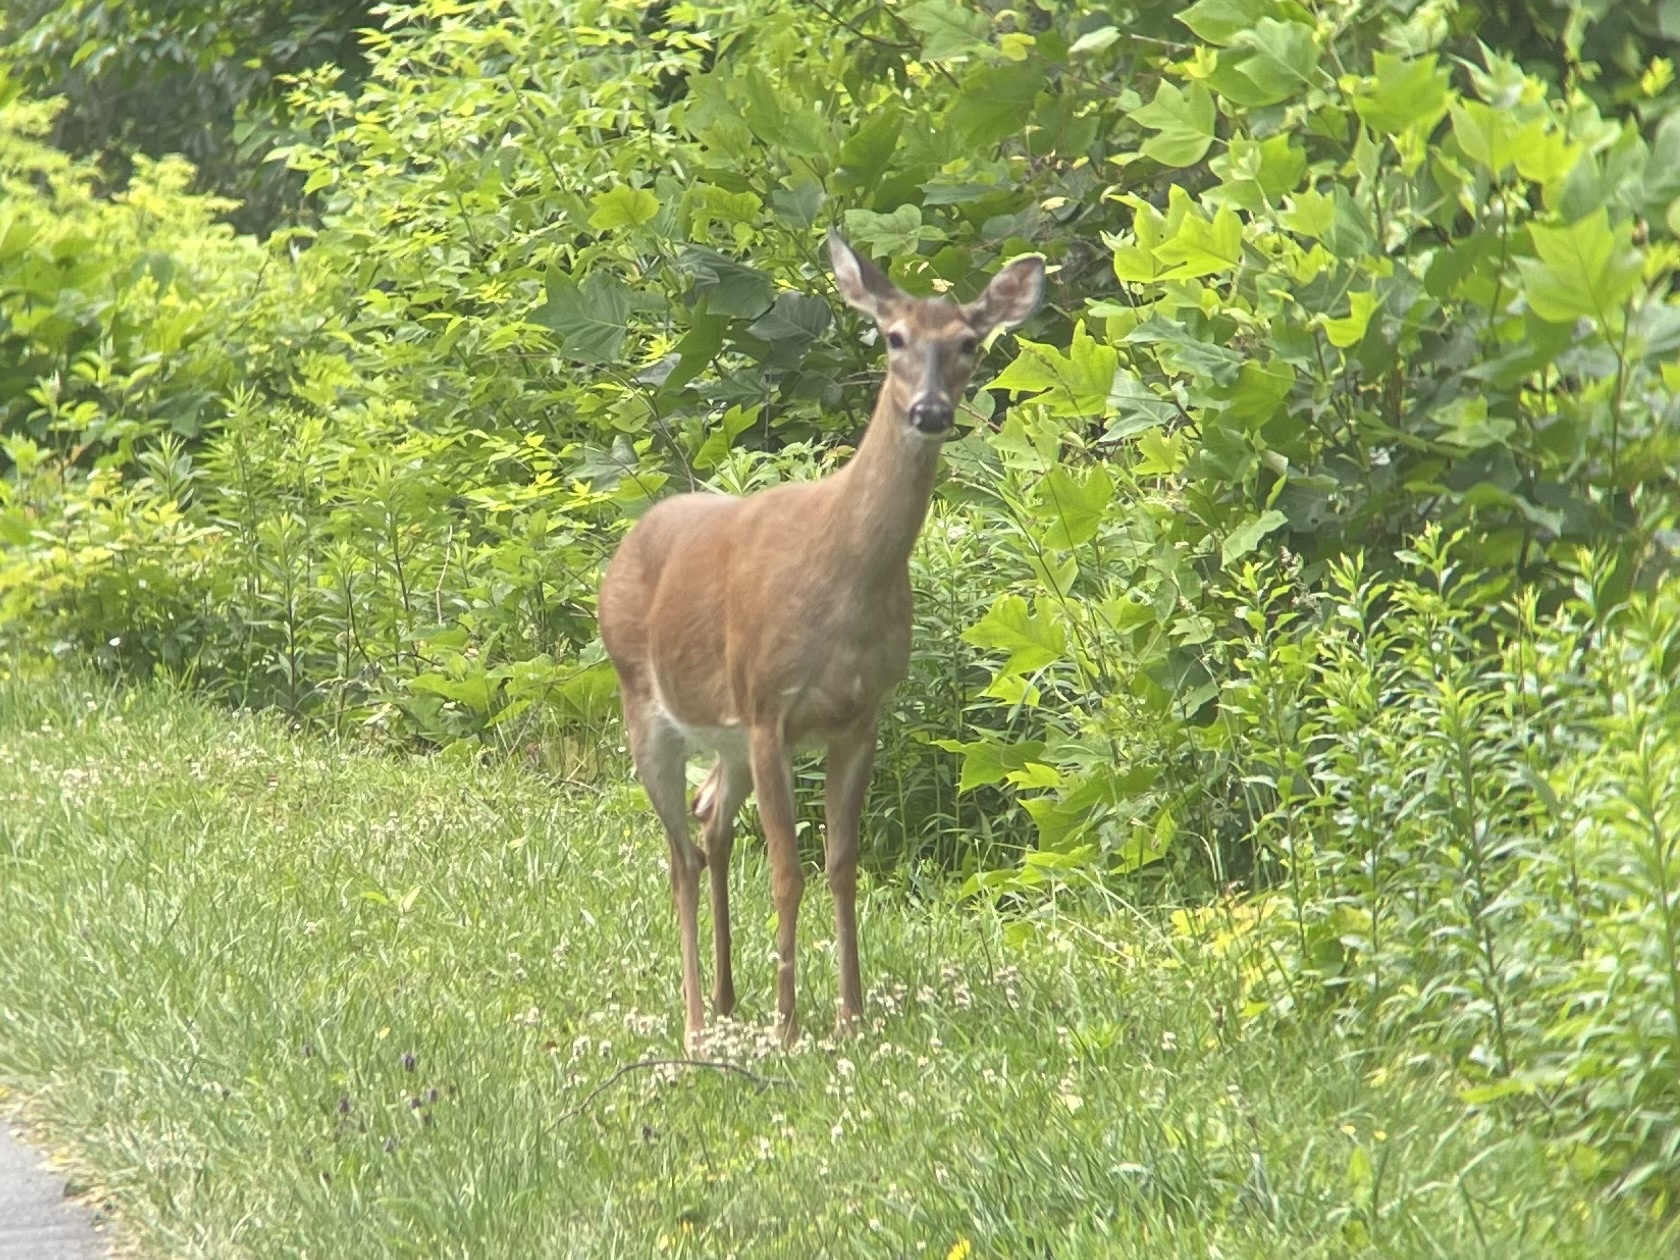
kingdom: Animalia
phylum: Chordata
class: Mammalia
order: Artiodactyla
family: Cervidae
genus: Odocoileus
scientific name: Odocoileus virginianus
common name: White-tailed deer
